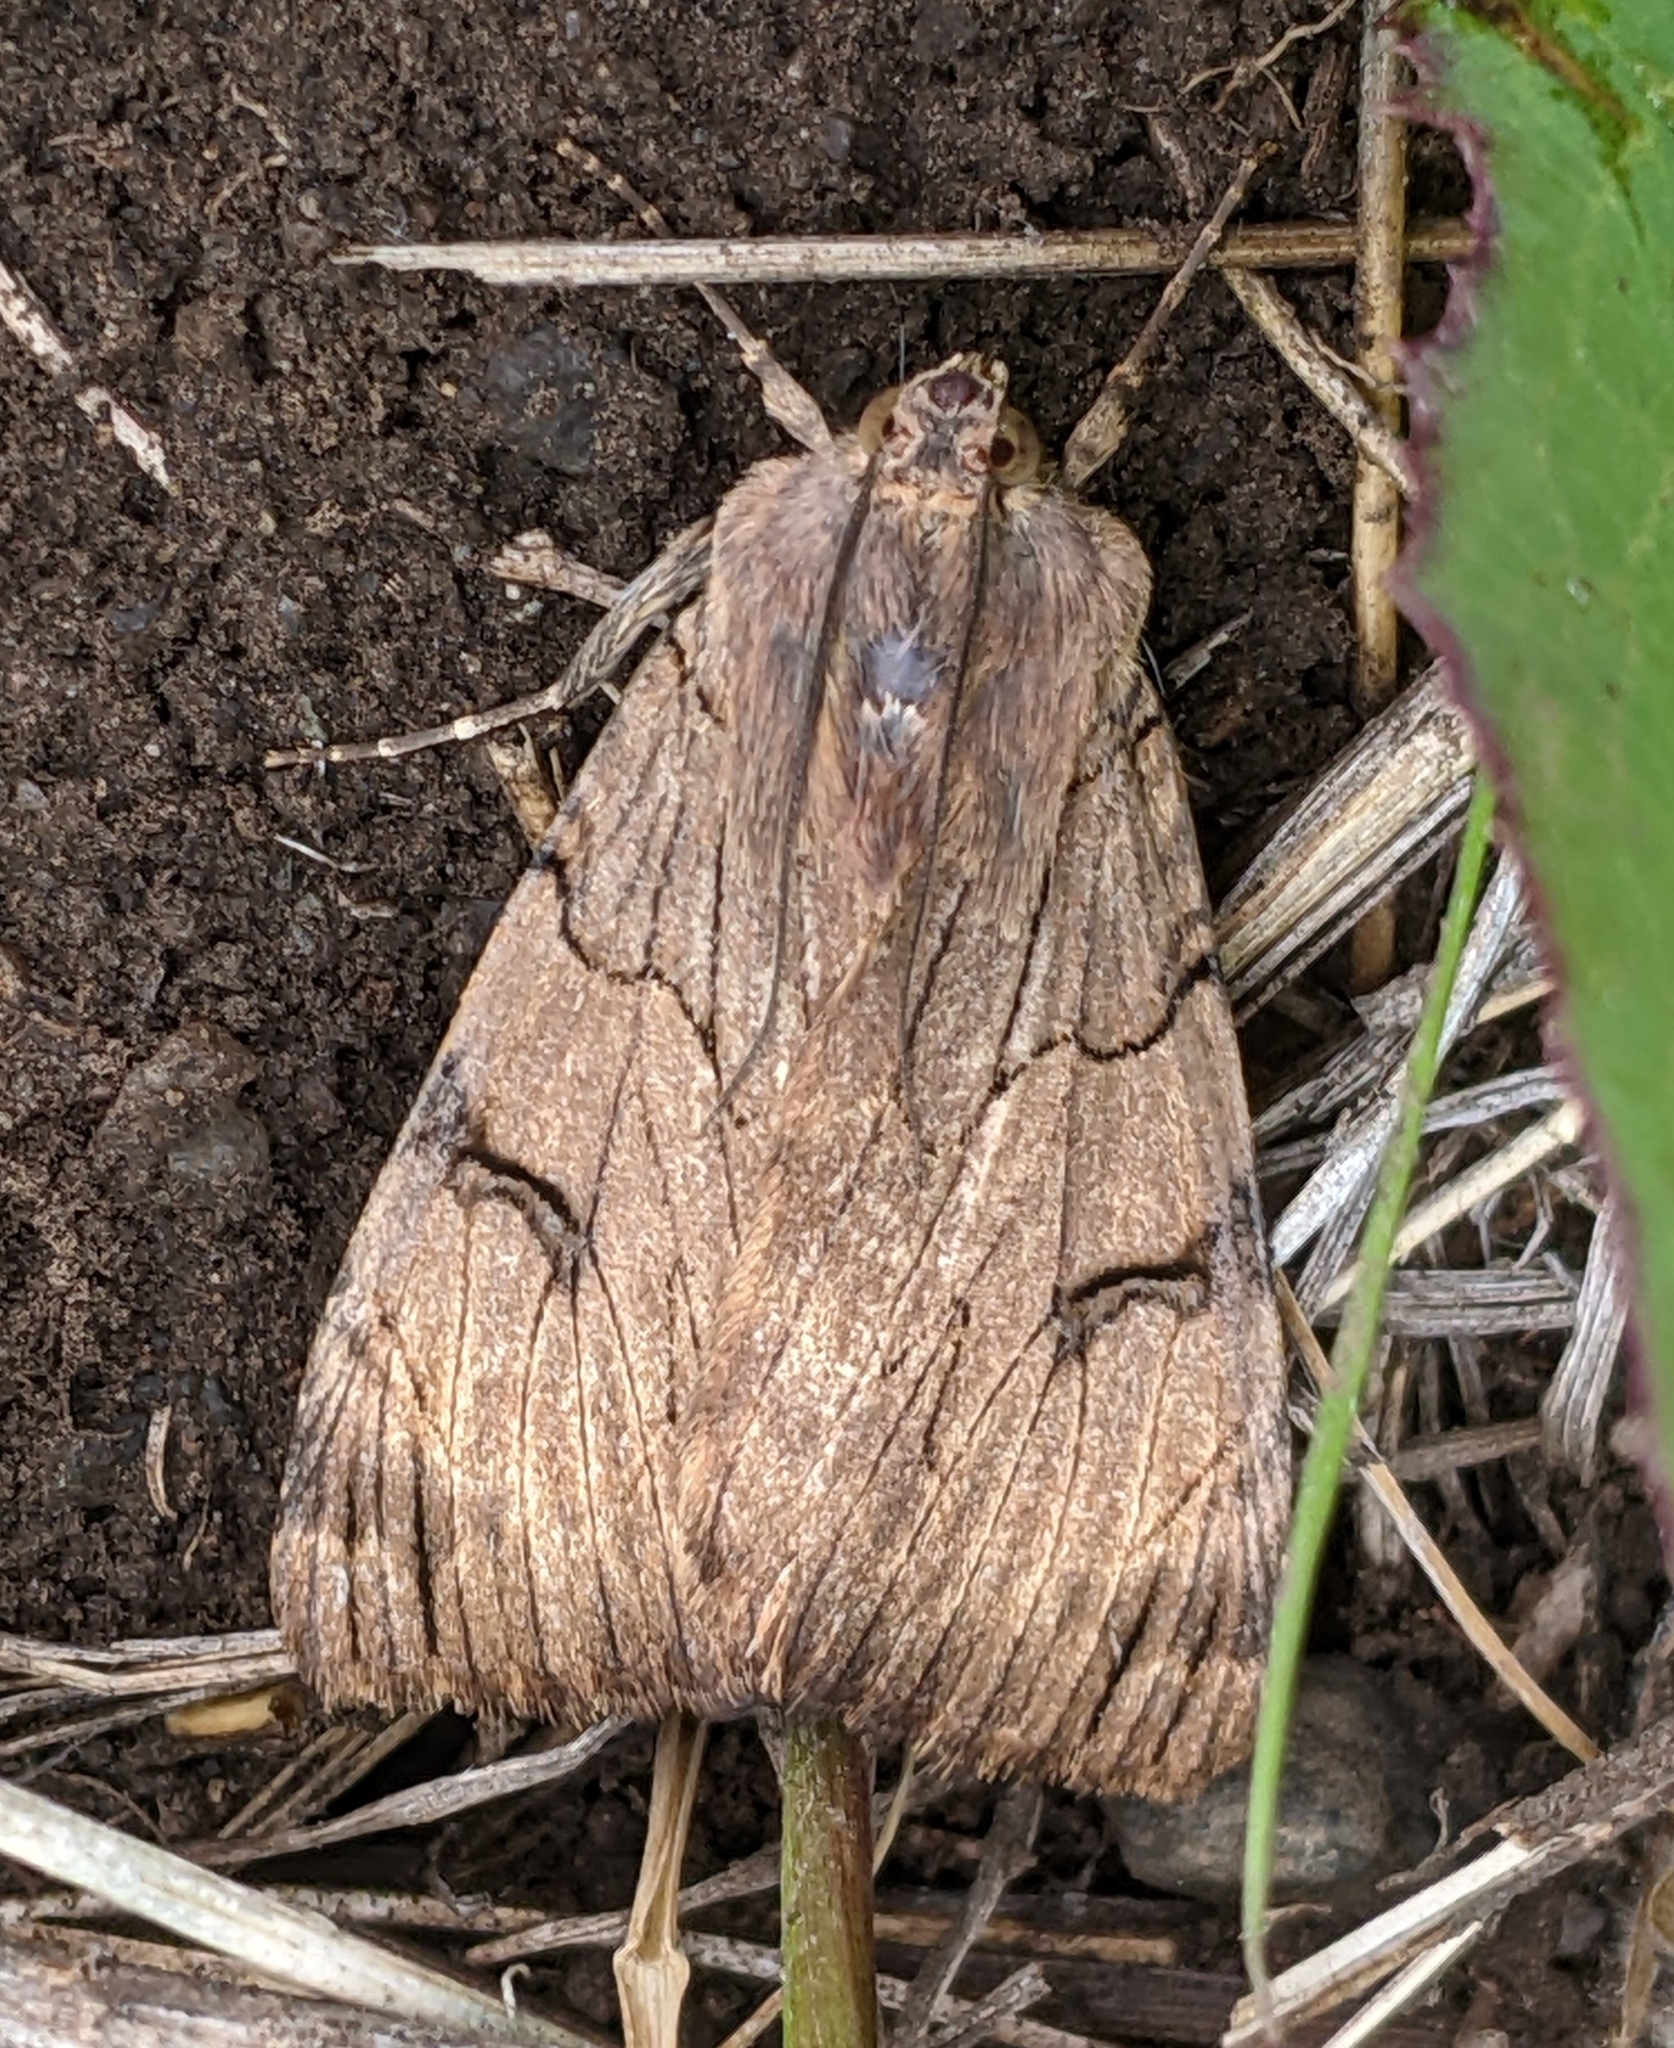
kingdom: Animalia
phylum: Arthropoda
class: Insecta
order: Lepidoptera
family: Erebidae
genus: Drasteria
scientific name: Drasteria ochracea
